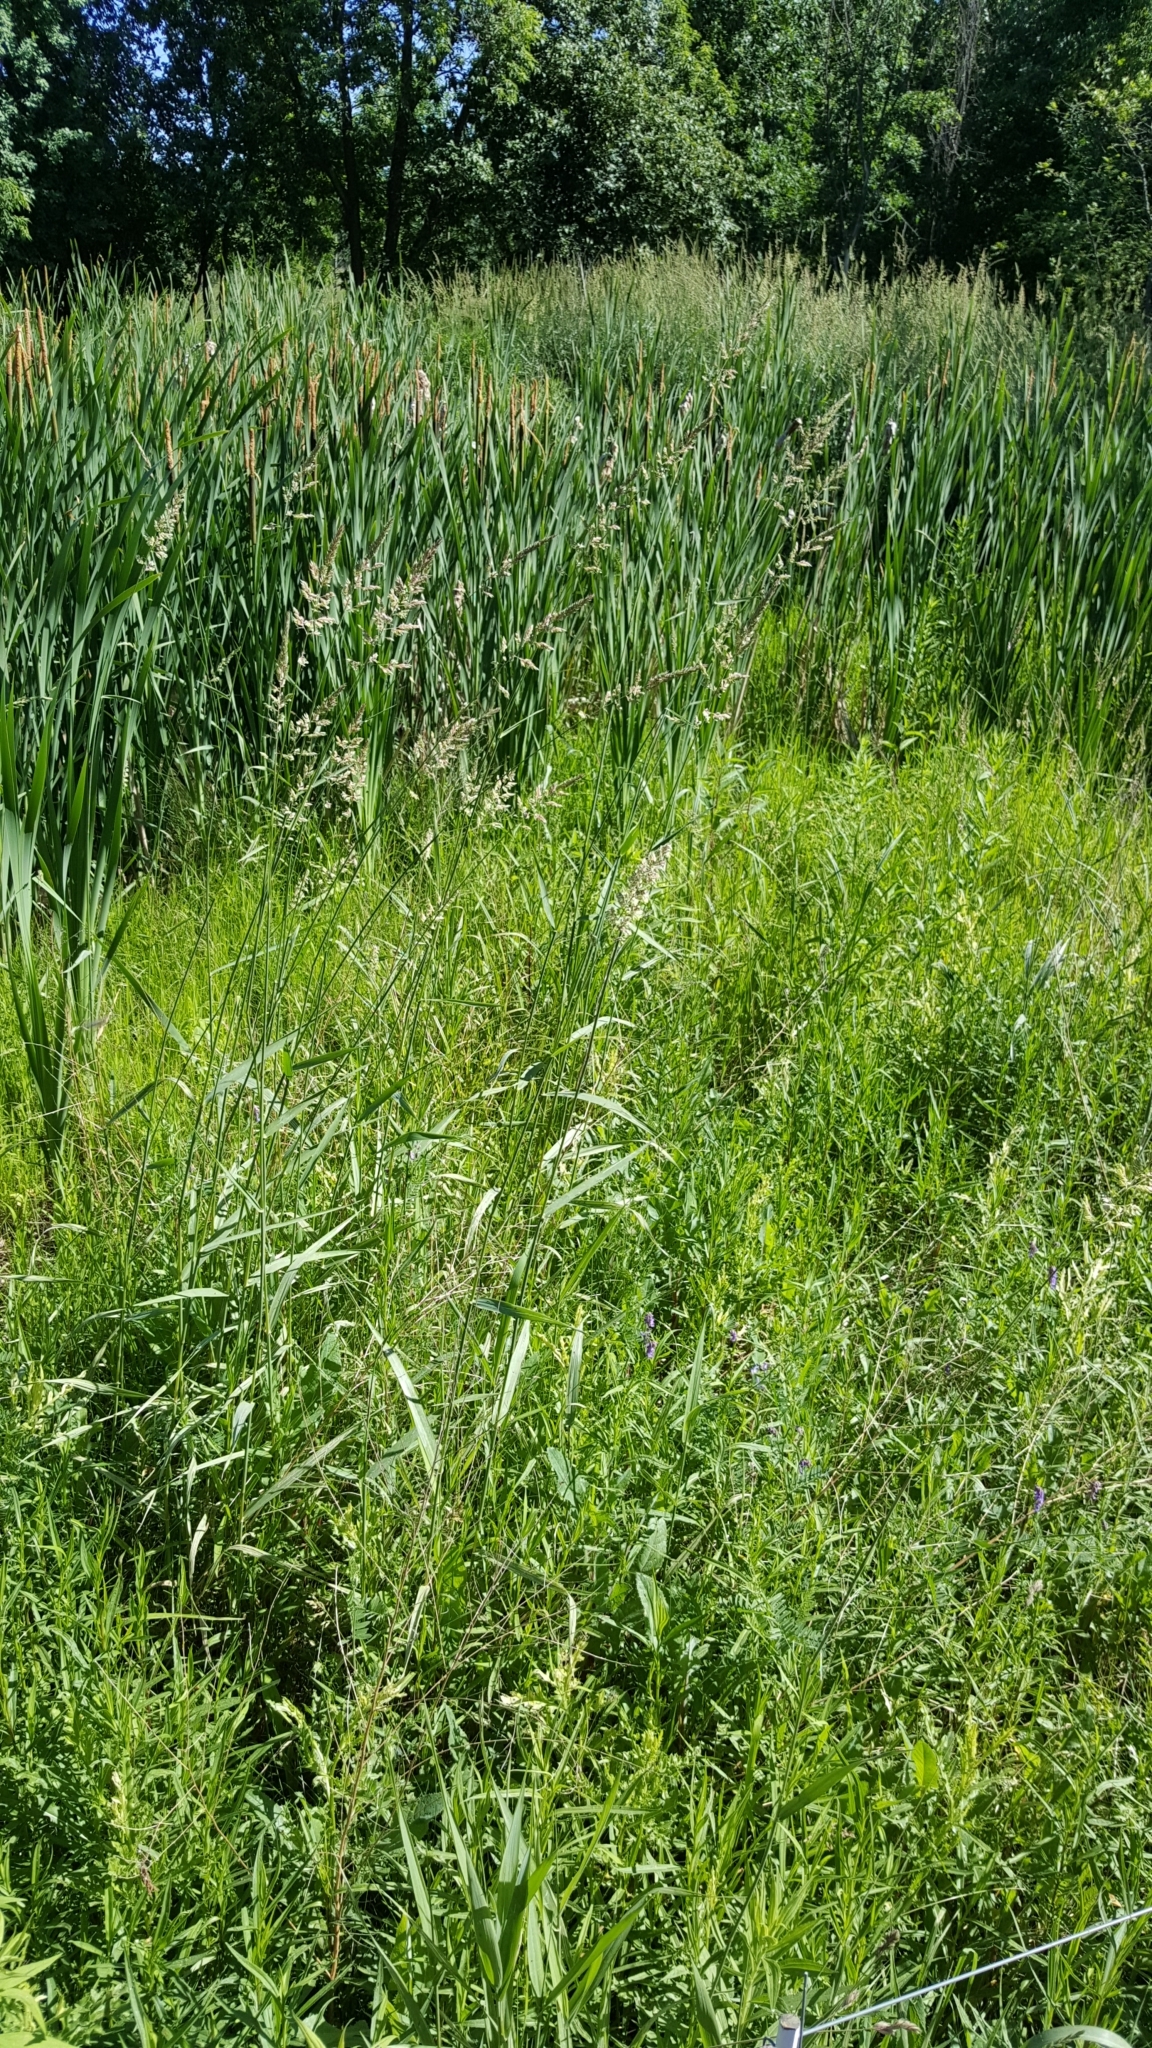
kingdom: Plantae
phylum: Tracheophyta
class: Liliopsida
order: Poales
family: Poaceae
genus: Phalaris
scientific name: Phalaris arundinacea
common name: Reed canary-grass
